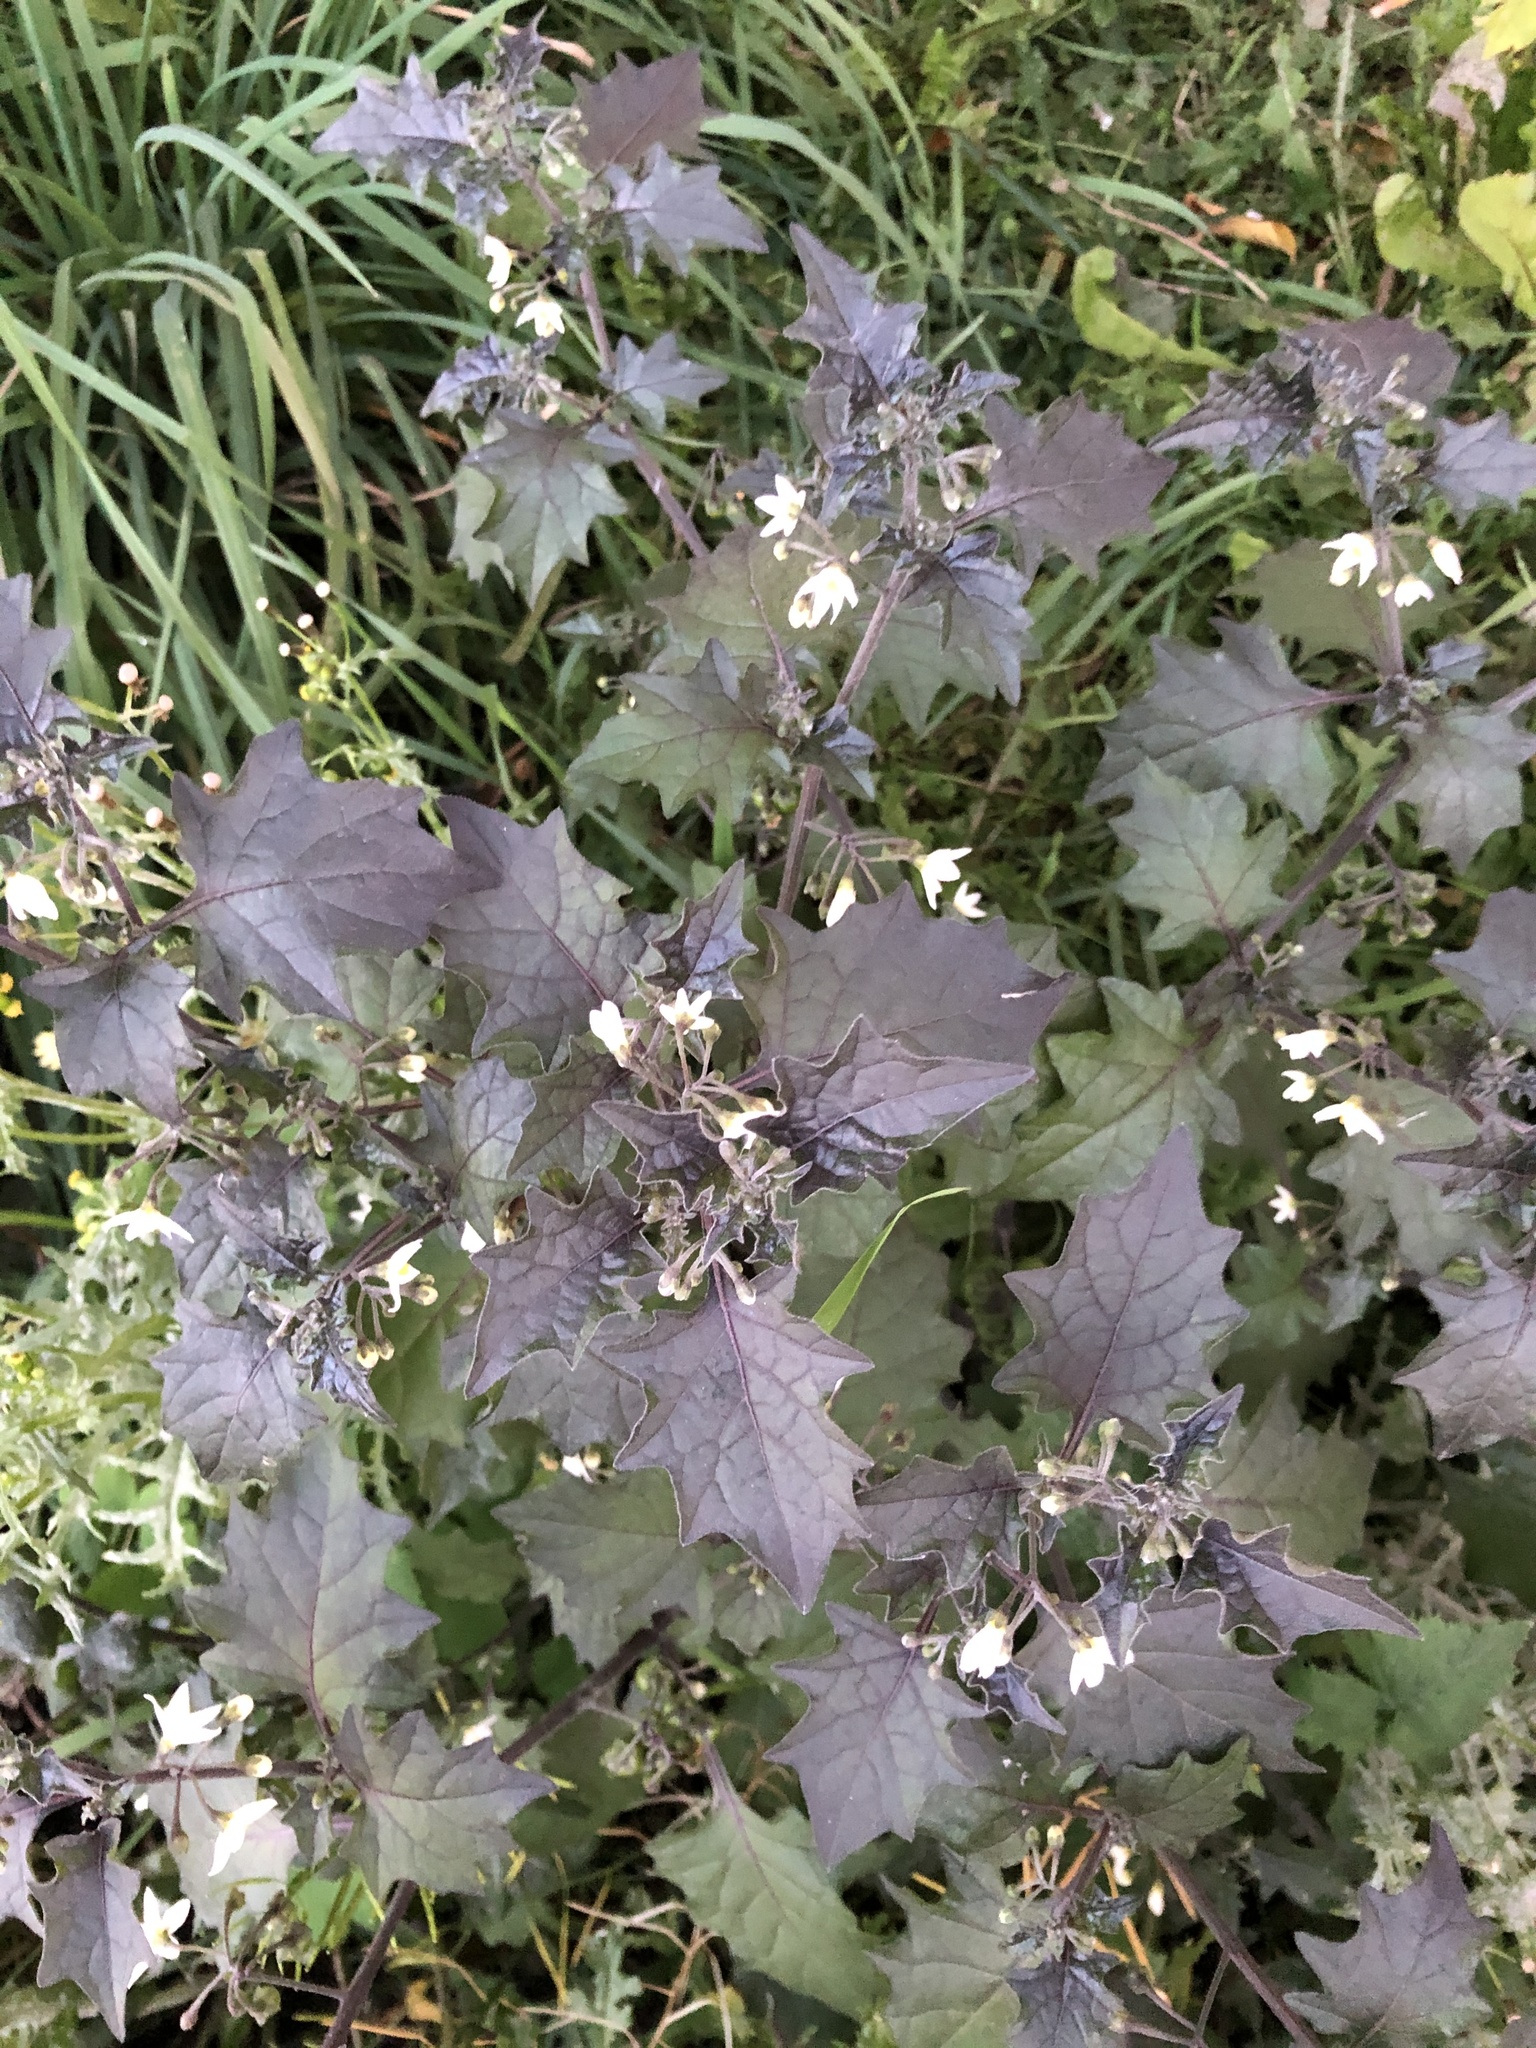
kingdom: Plantae
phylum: Tracheophyta
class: Magnoliopsida
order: Solanales
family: Solanaceae
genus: Solanum
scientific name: Solanum decipiens
